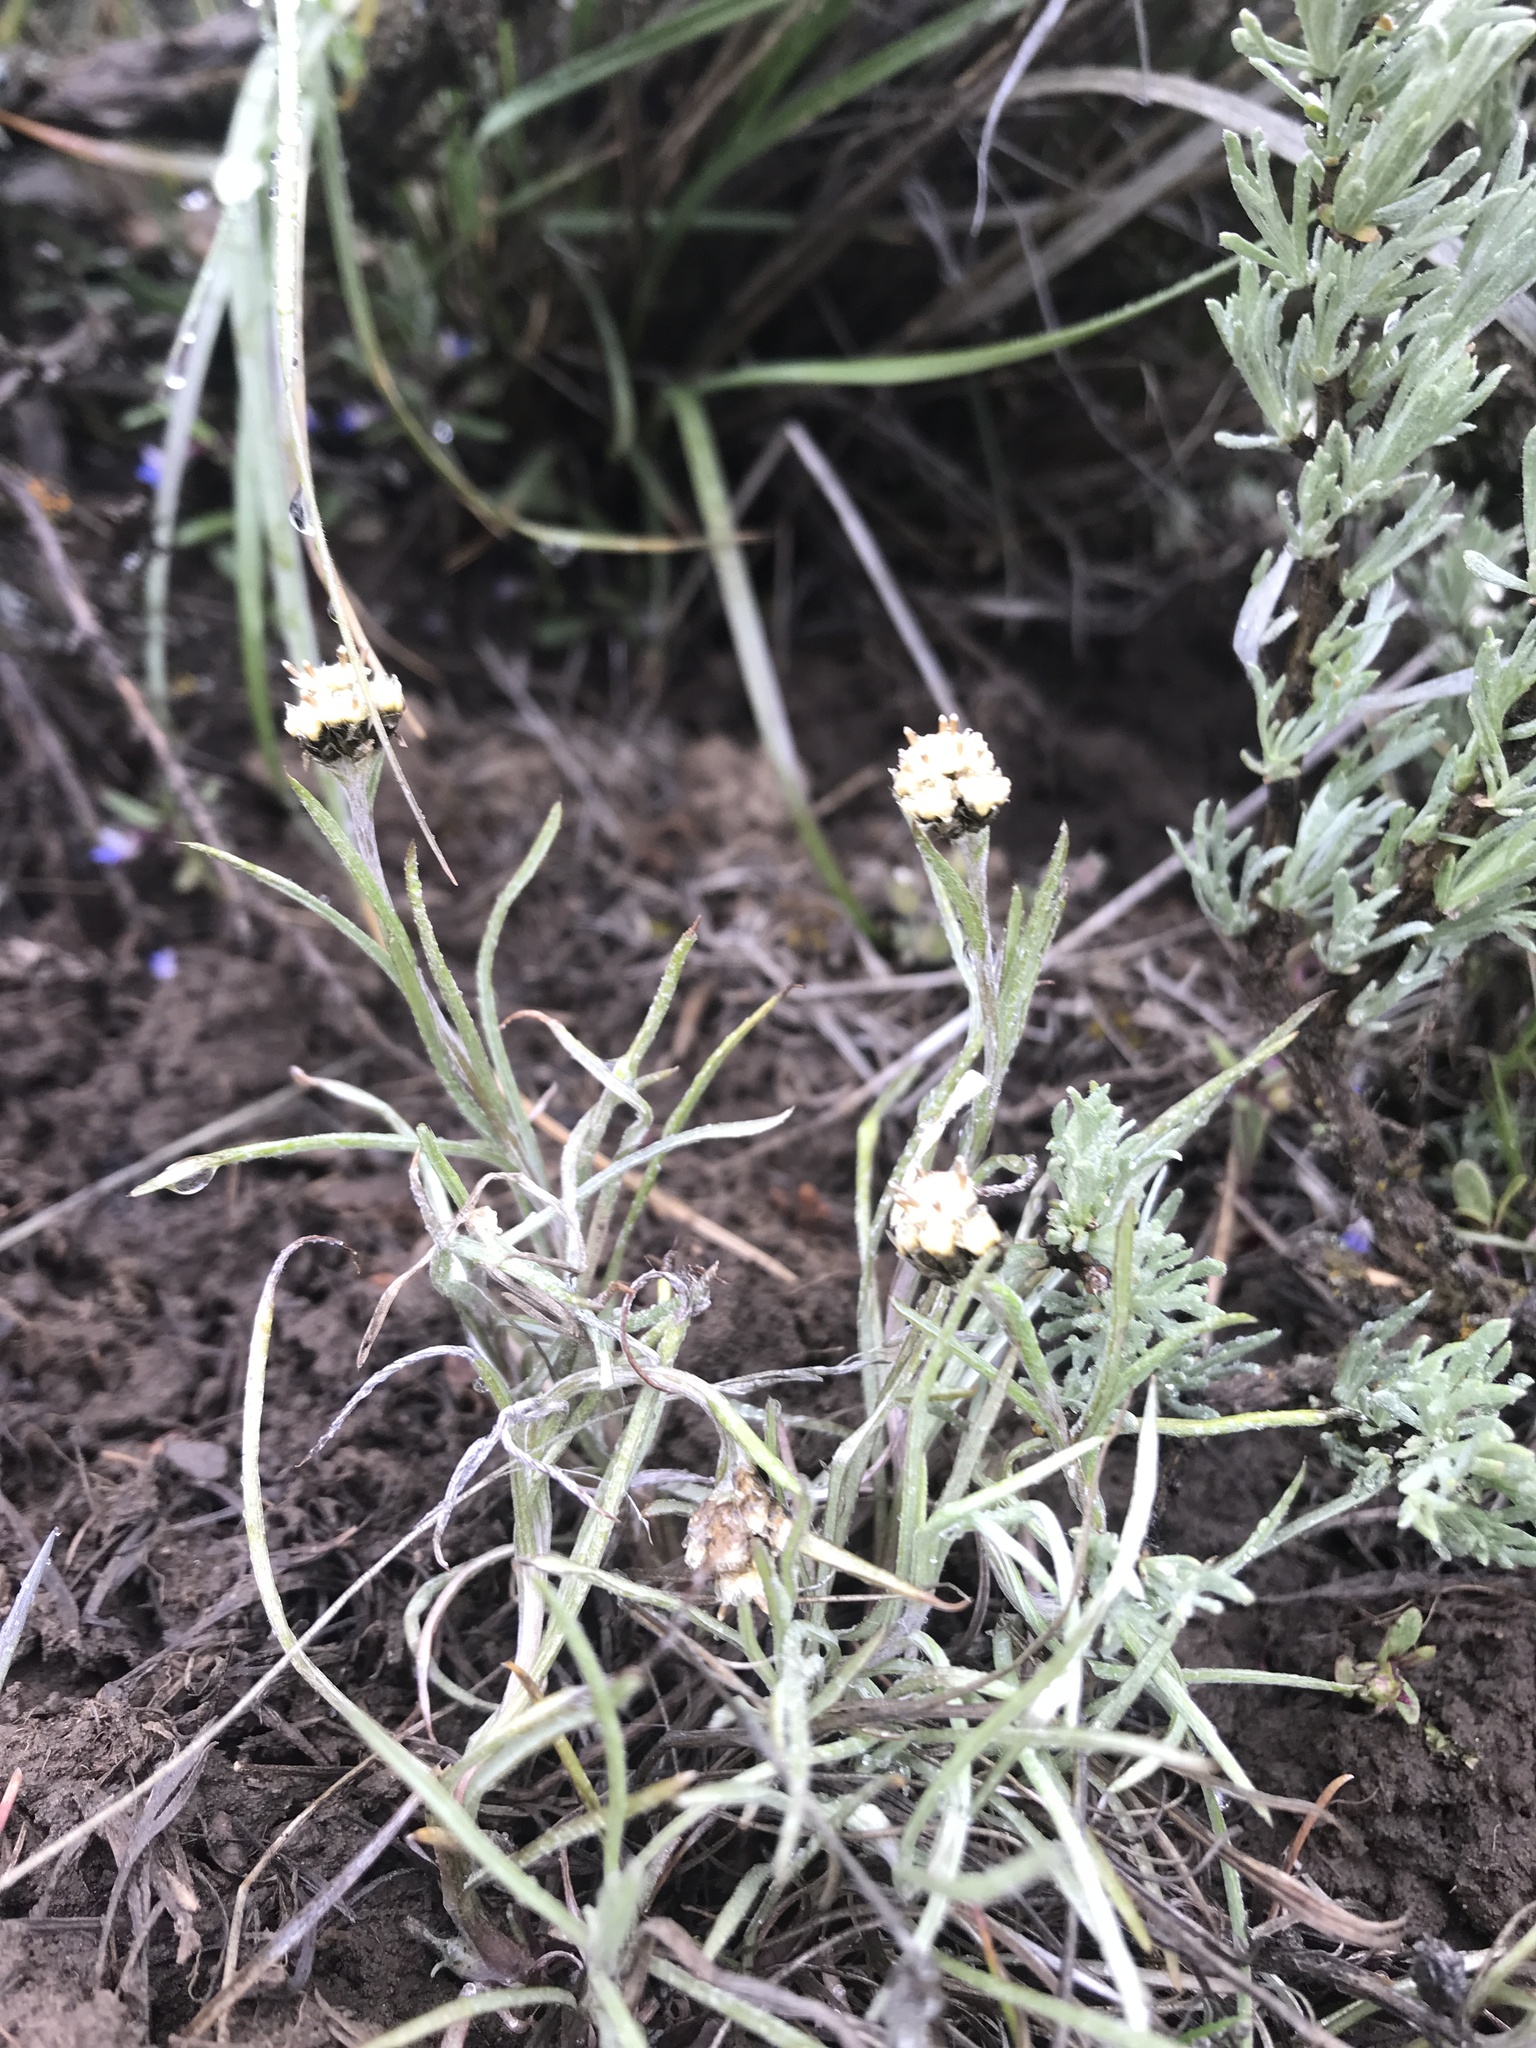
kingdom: Plantae
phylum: Tracheophyta
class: Magnoliopsida
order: Asterales
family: Asteraceae
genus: Antennaria
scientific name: Antennaria stenophylla
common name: Narrow-leaved pussytoes
